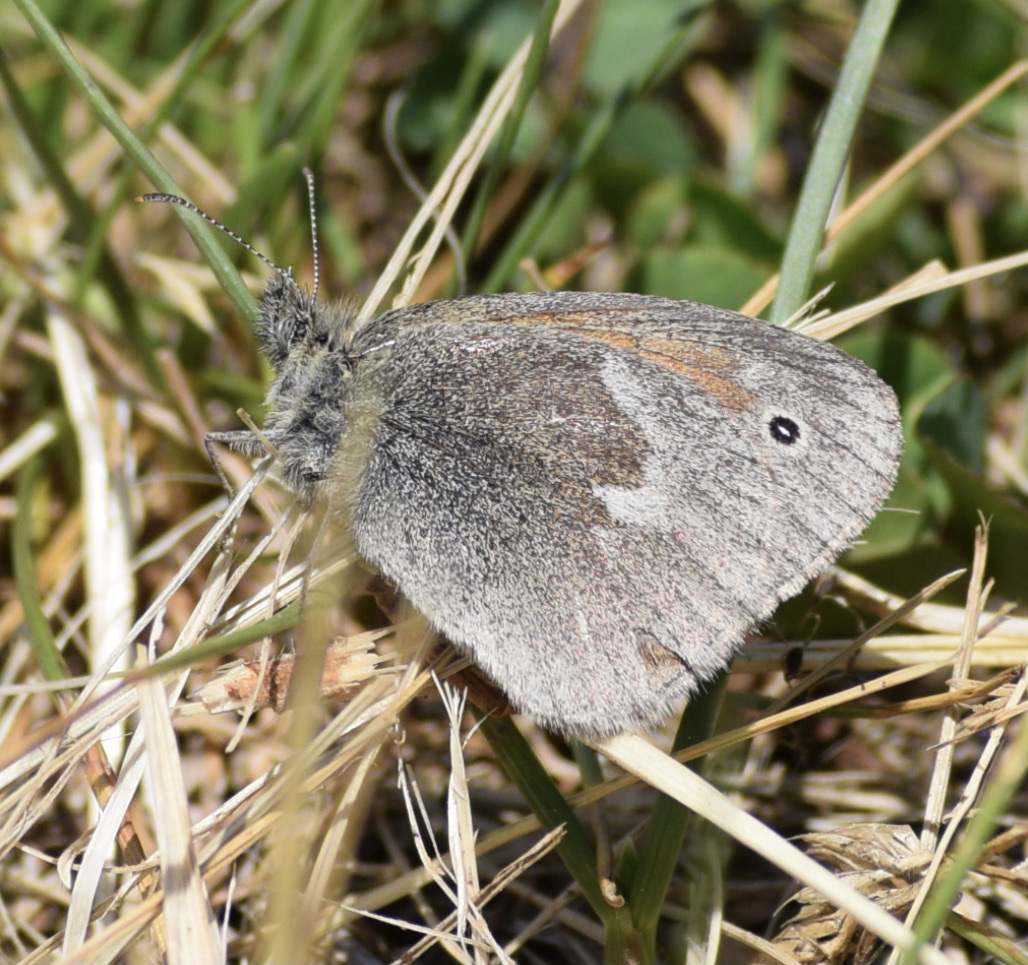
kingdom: Animalia
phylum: Arthropoda
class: Insecta
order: Lepidoptera
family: Nymphalidae
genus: Coenonympha
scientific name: Coenonympha california
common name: Common ringlet
